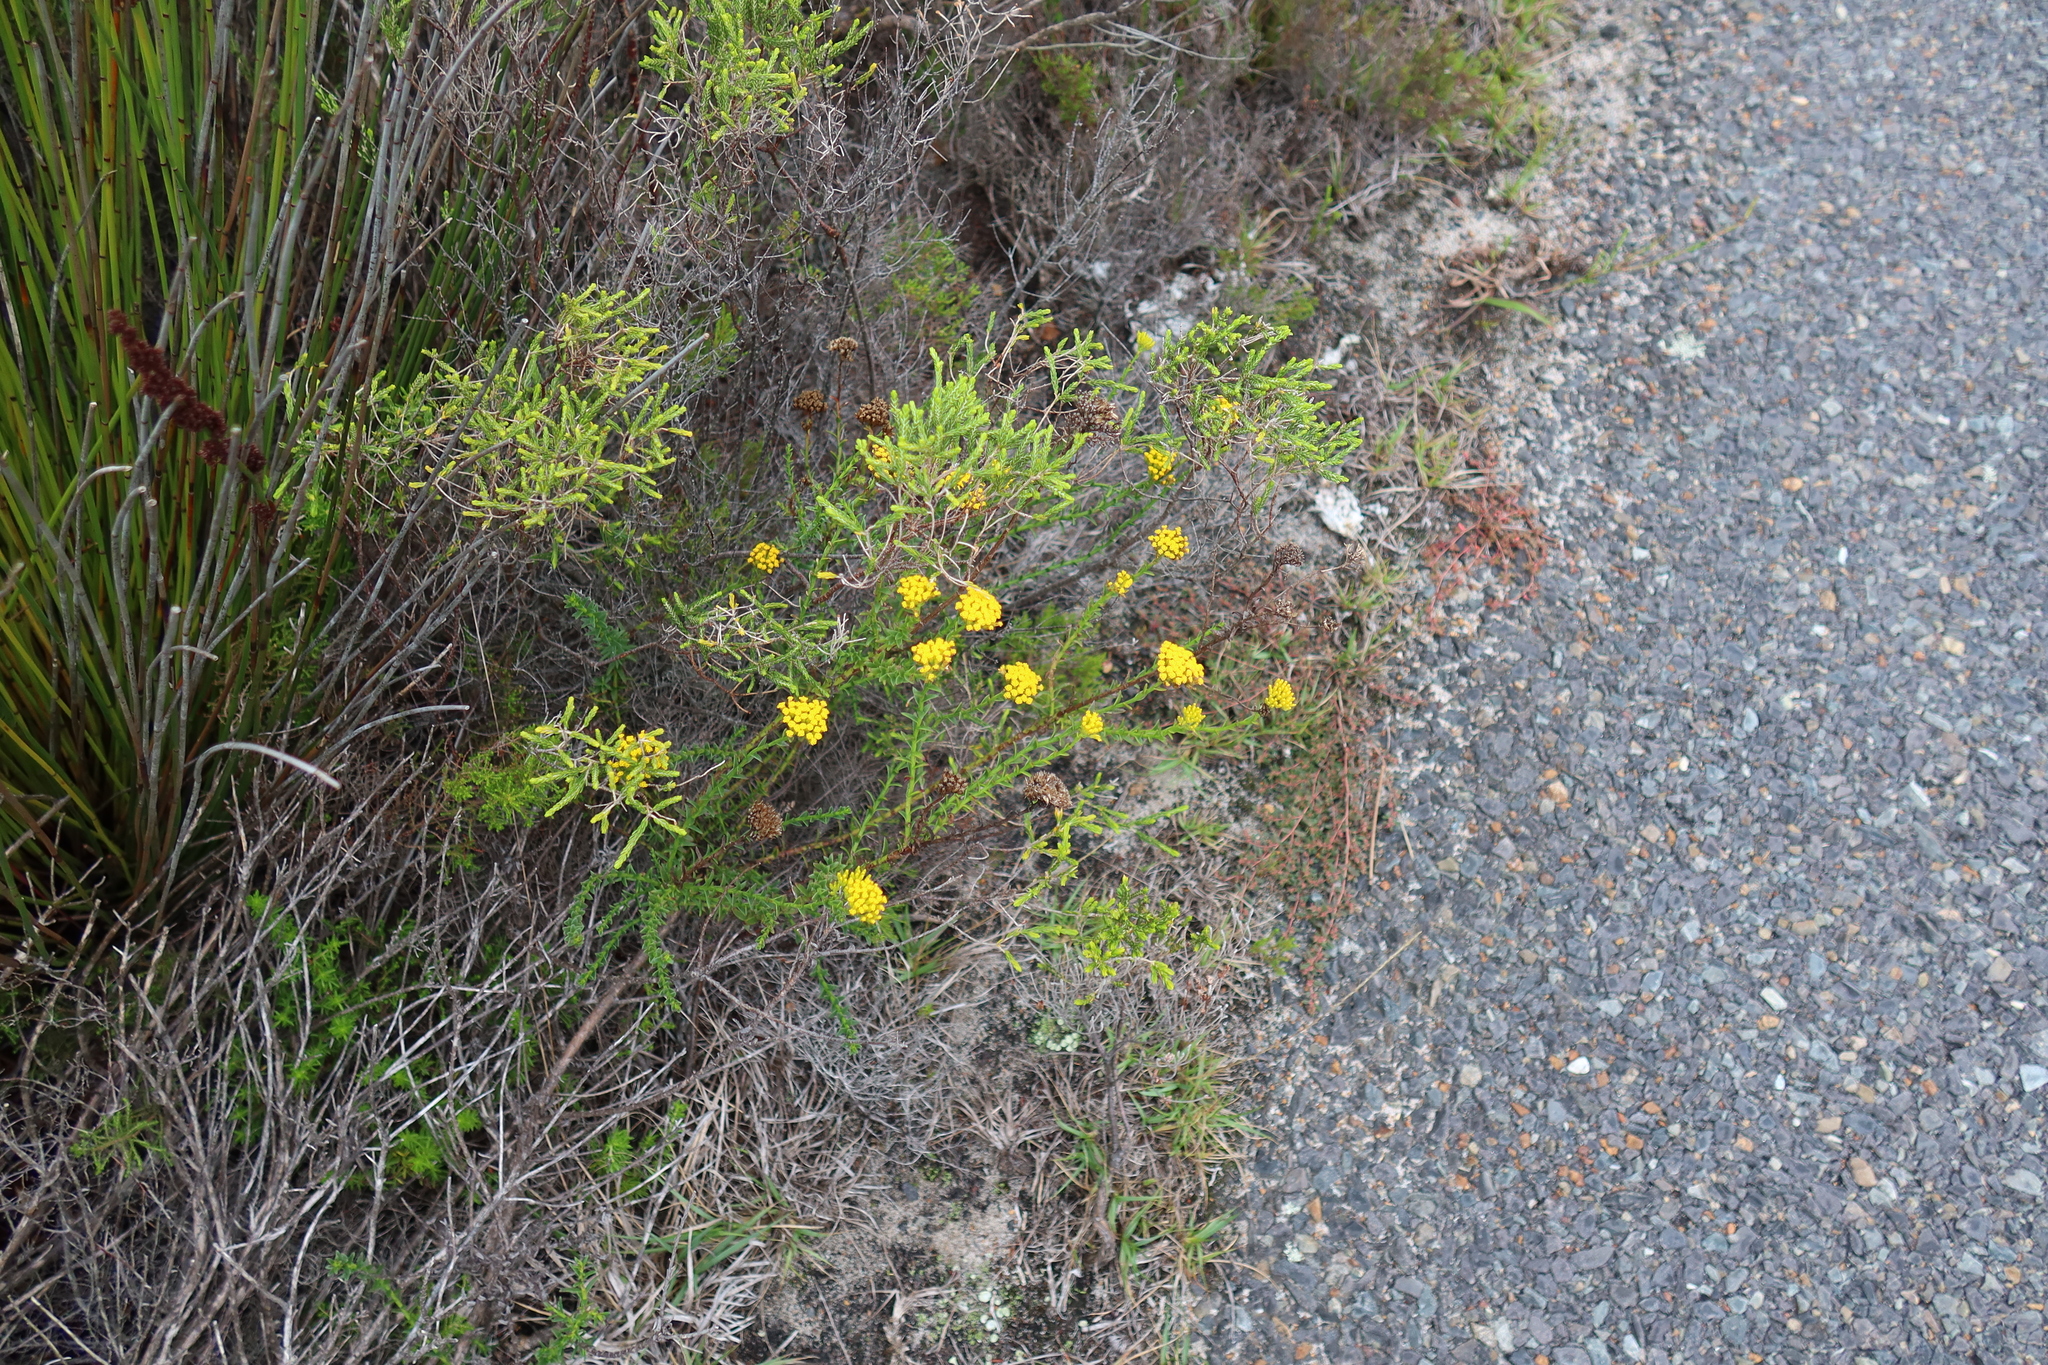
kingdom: Plantae
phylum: Tracheophyta
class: Magnoliopsida
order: Asterales
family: Asteraceae
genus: Athanasia
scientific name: Athanasia juncea
